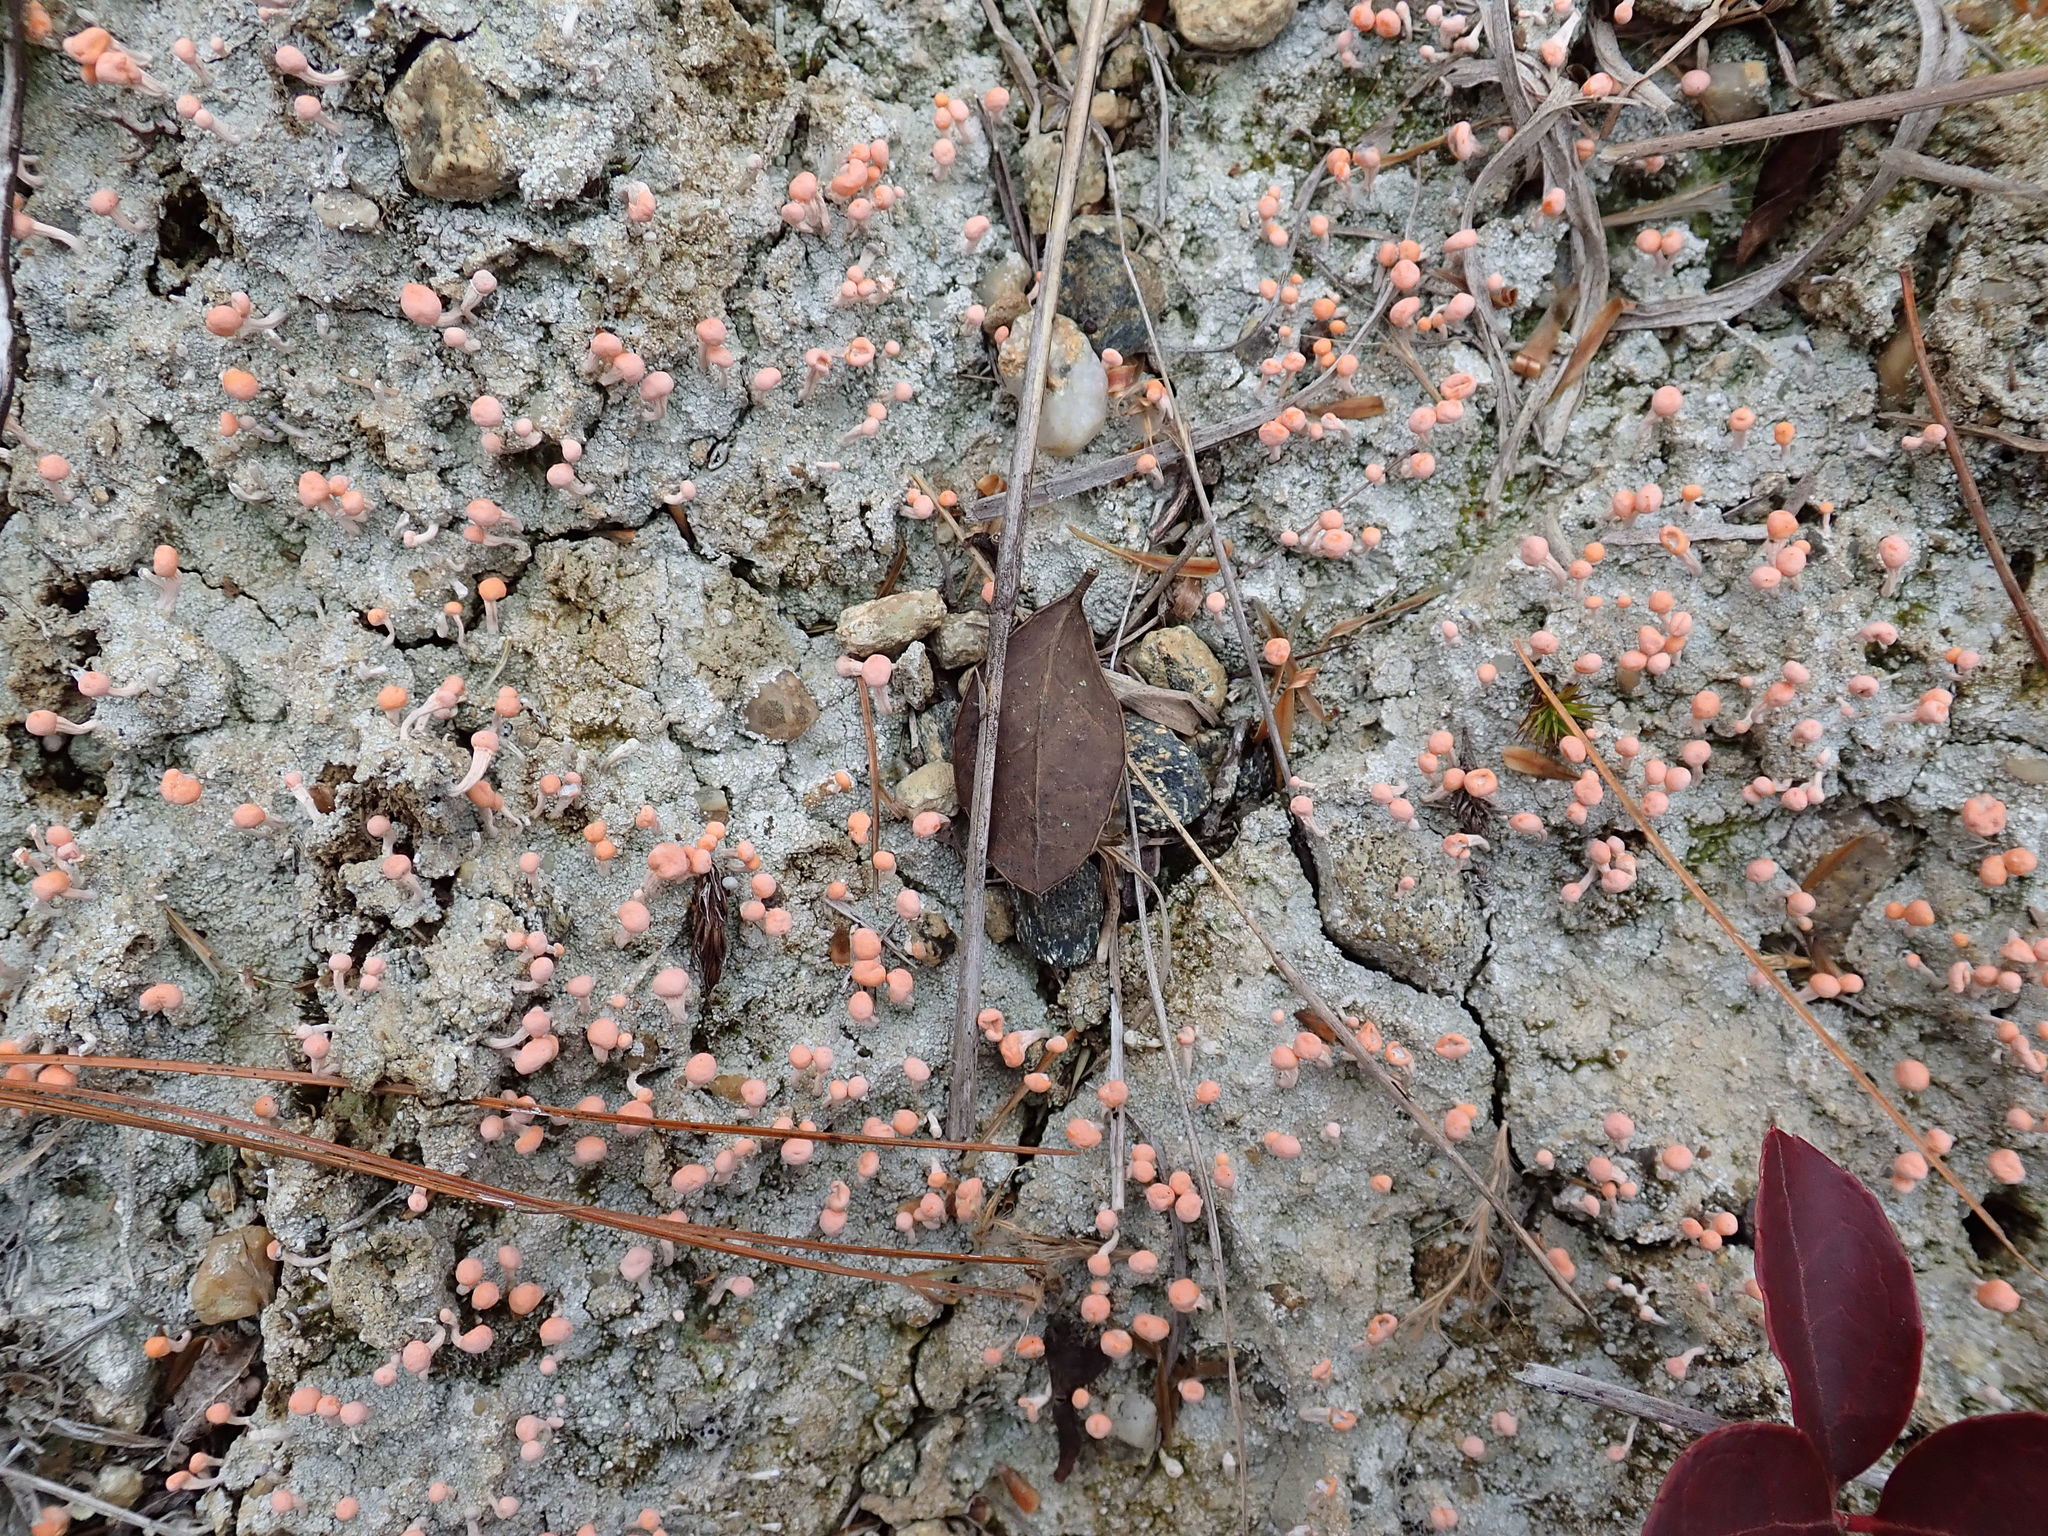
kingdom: Fungi
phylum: Ascomycota
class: Lecanoromycetes
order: Pertusariales
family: Icmadophilaceae
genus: Dibaeis
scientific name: Dibaeis baeomyces
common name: Pink earth lichen
